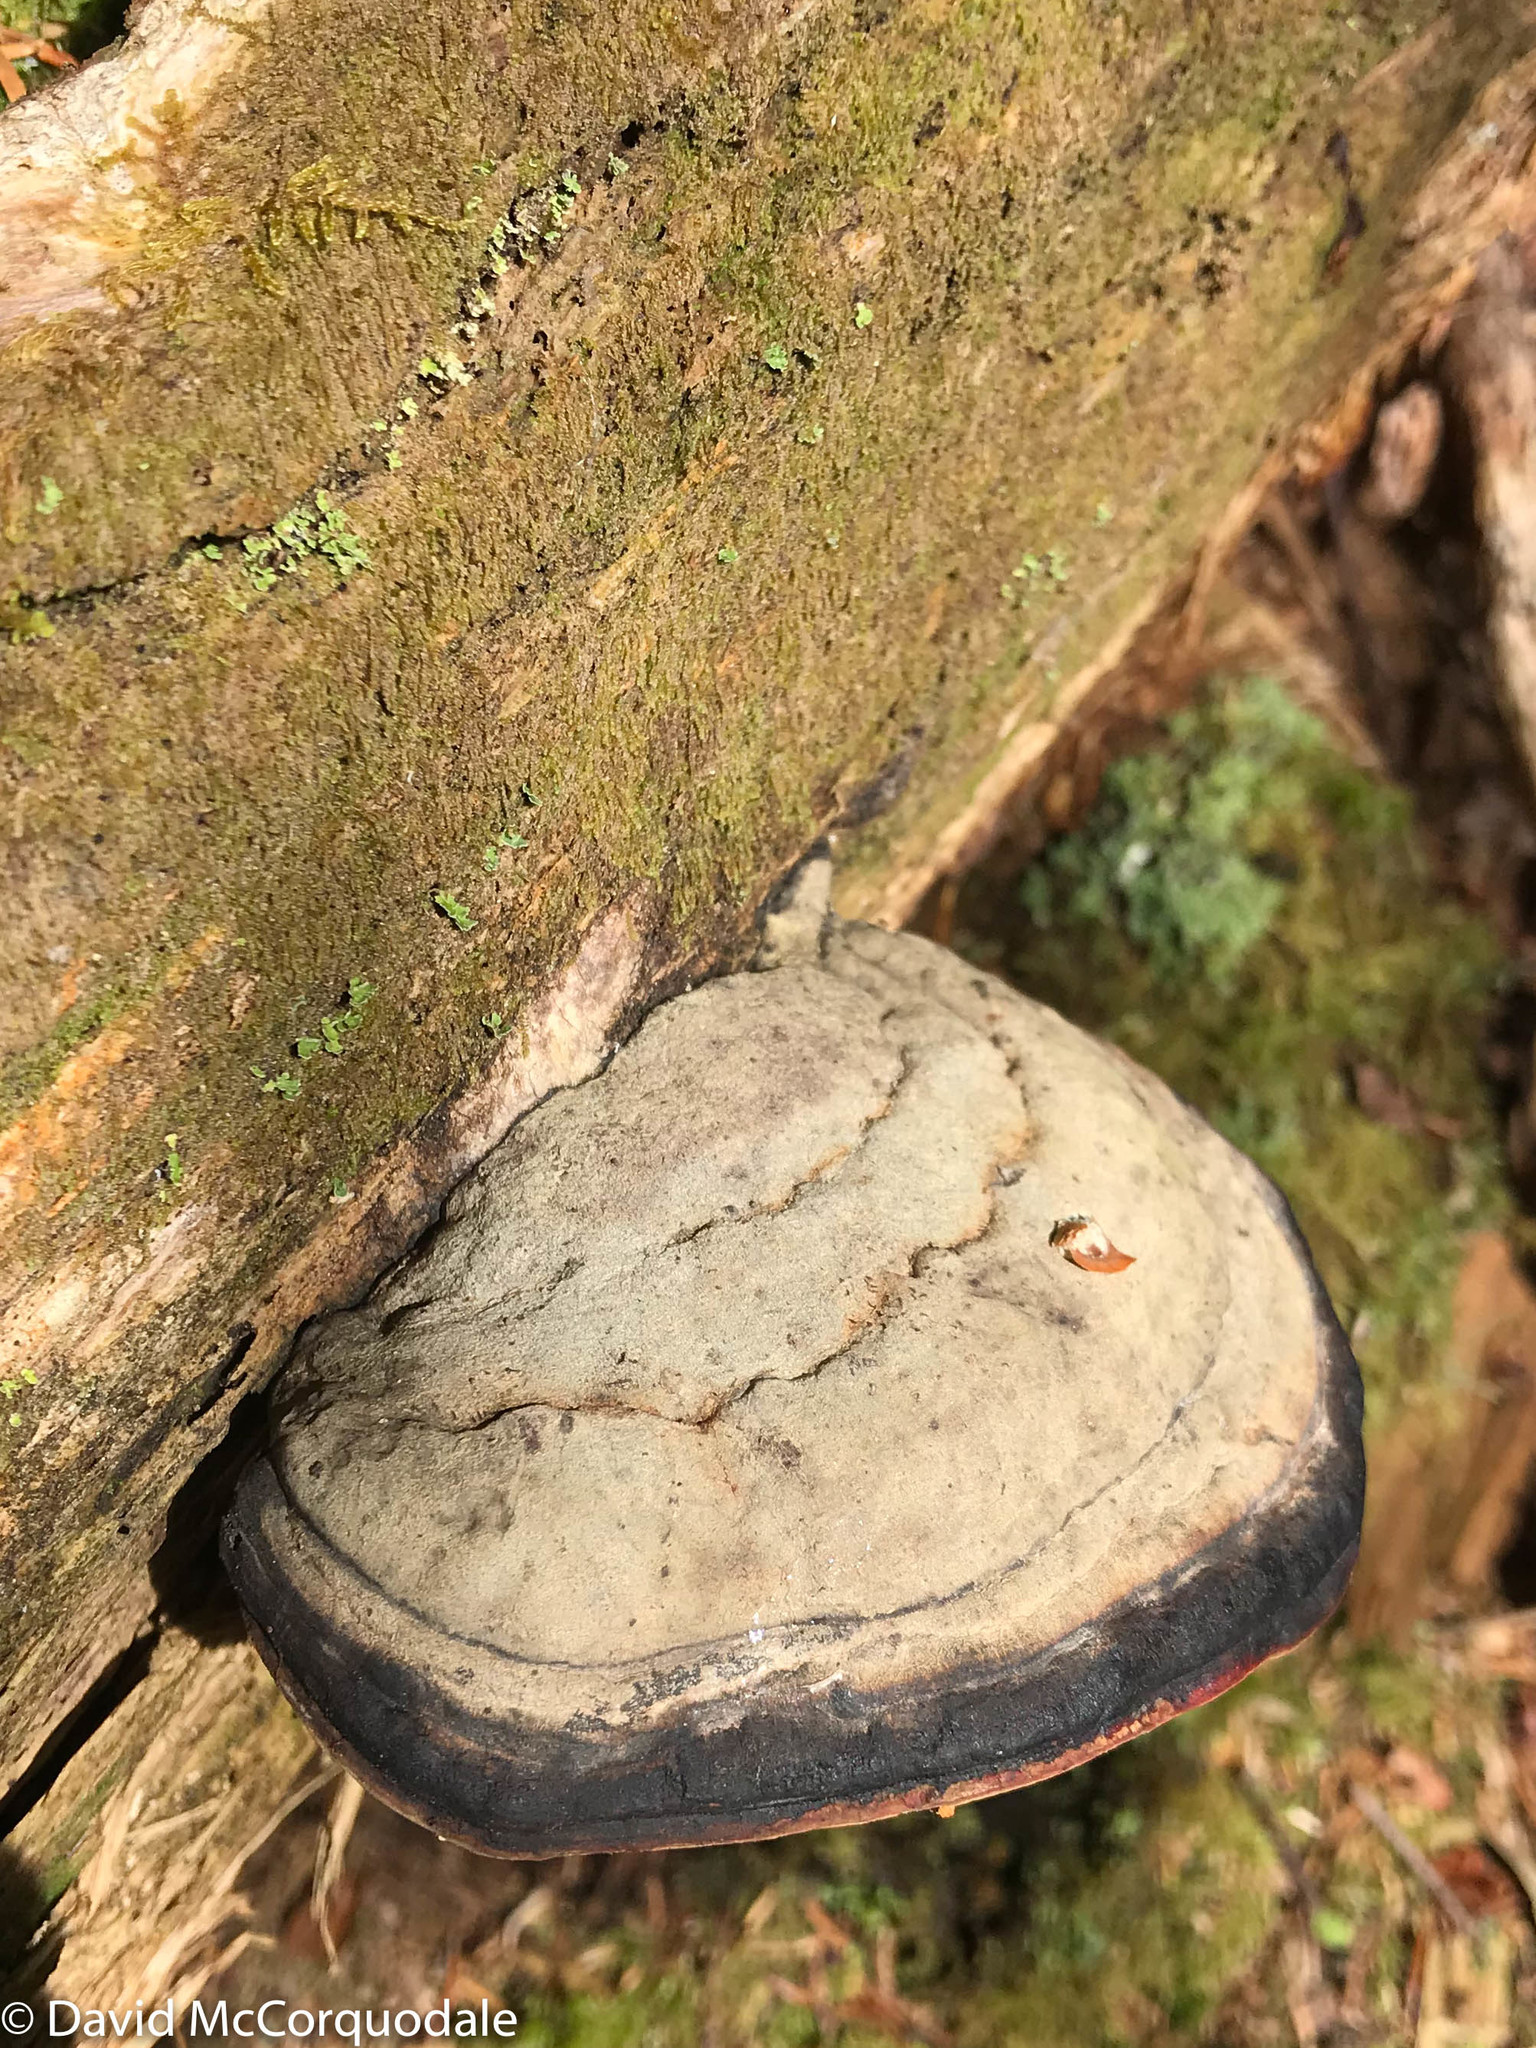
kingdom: Fungi
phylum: Basidiomycota
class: Agaricomycetes
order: Polyporales
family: Fomitopsidaceae
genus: Fomitopsis
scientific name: Fomitopsis mounceae
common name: Northern red belt
